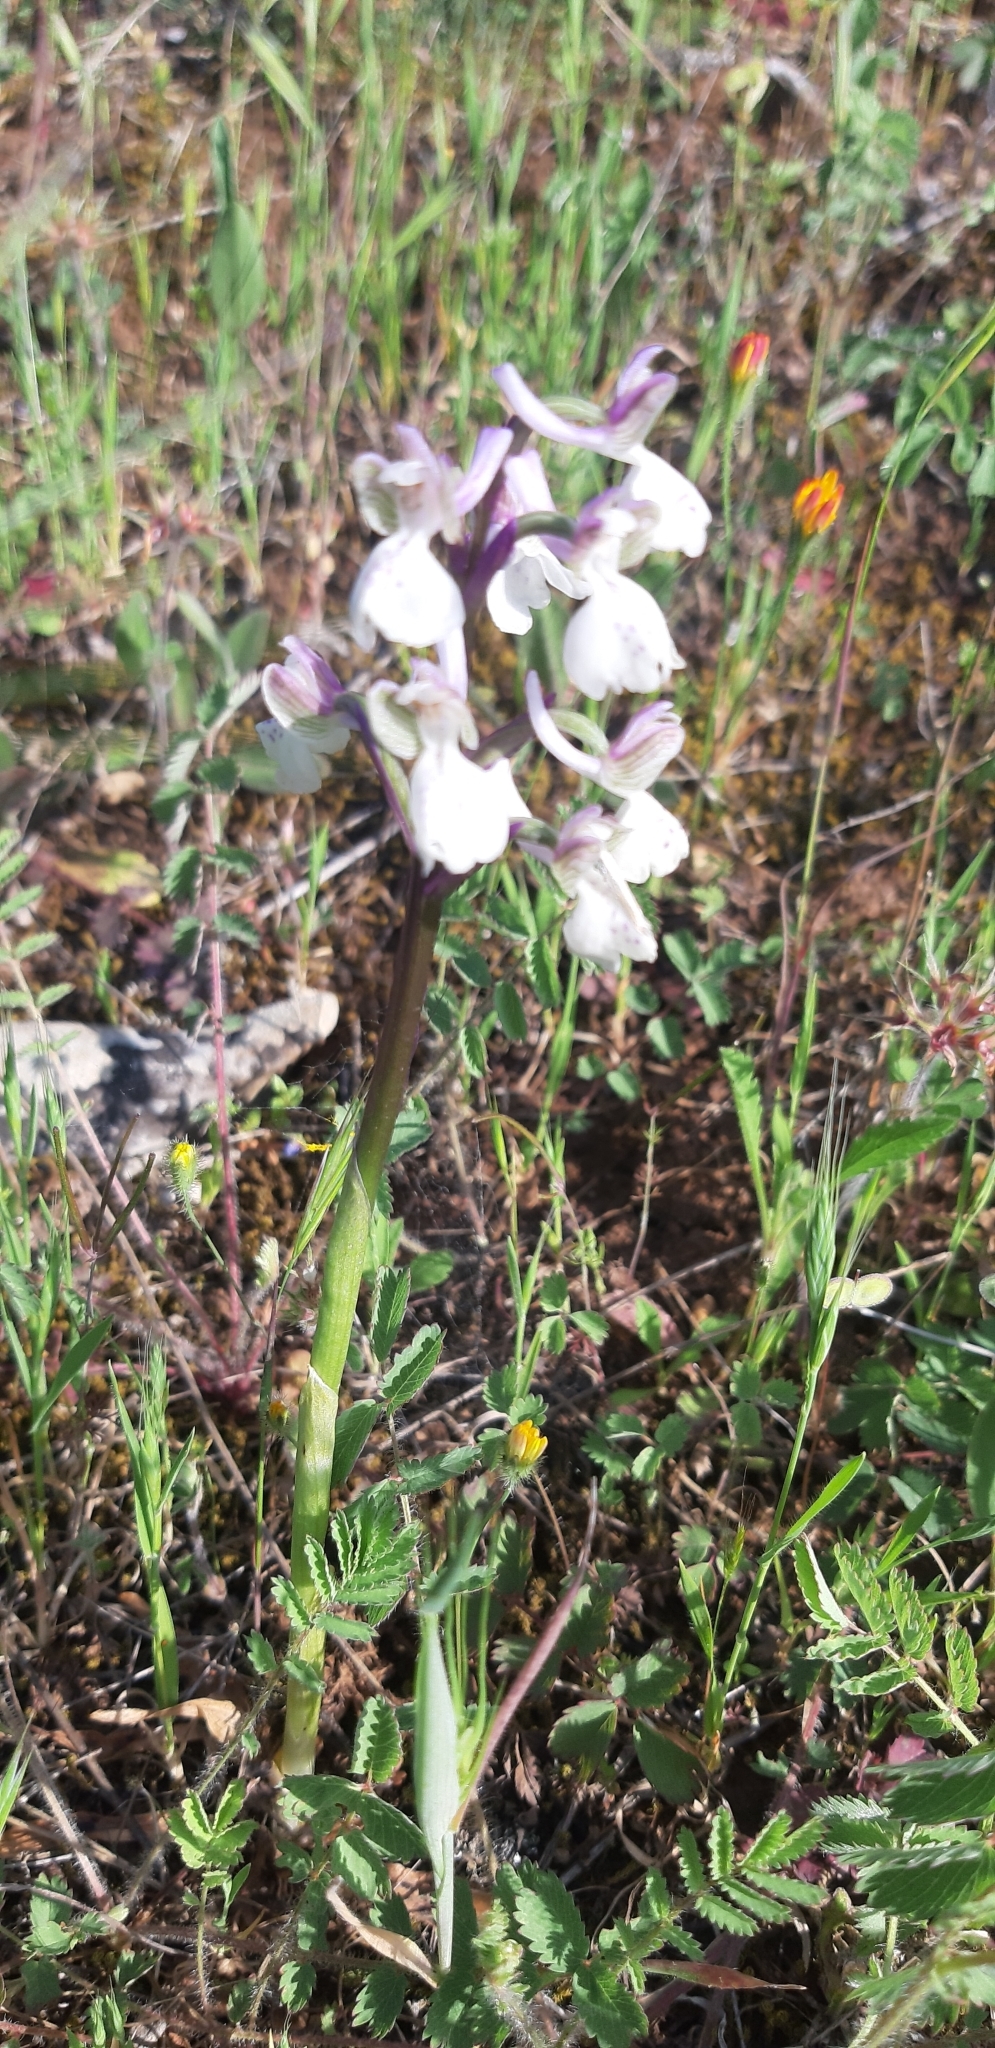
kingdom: Plantae
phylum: Tracheophyta
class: Liliopsida
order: Asparagales
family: Orchidaceae
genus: Anacamptis
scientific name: Anacamptis morio
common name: Green-winged orchid
